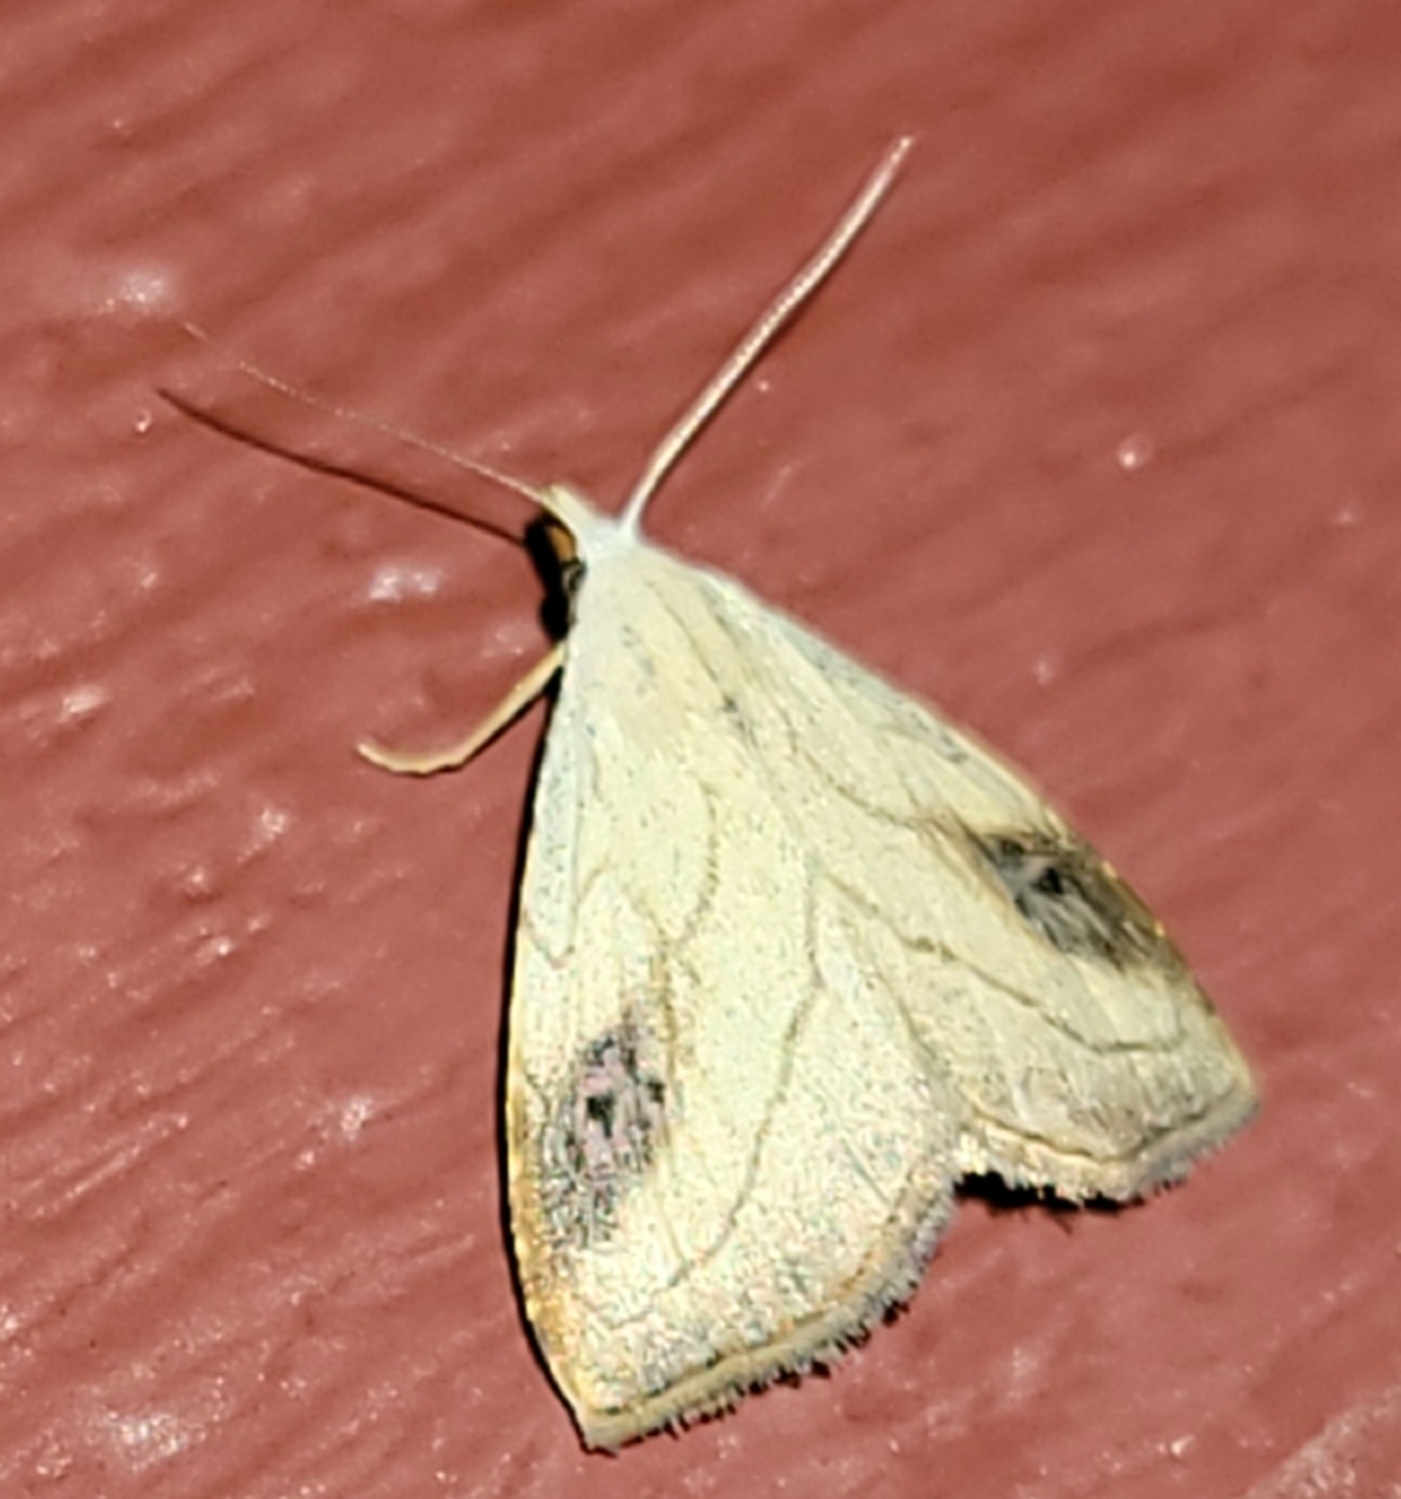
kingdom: Animalia
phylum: Arthropoda
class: Insecta
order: Lepidoptera
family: Erebidae
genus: Rivula
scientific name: Rivula propinqualis
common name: Spotted grass moth
